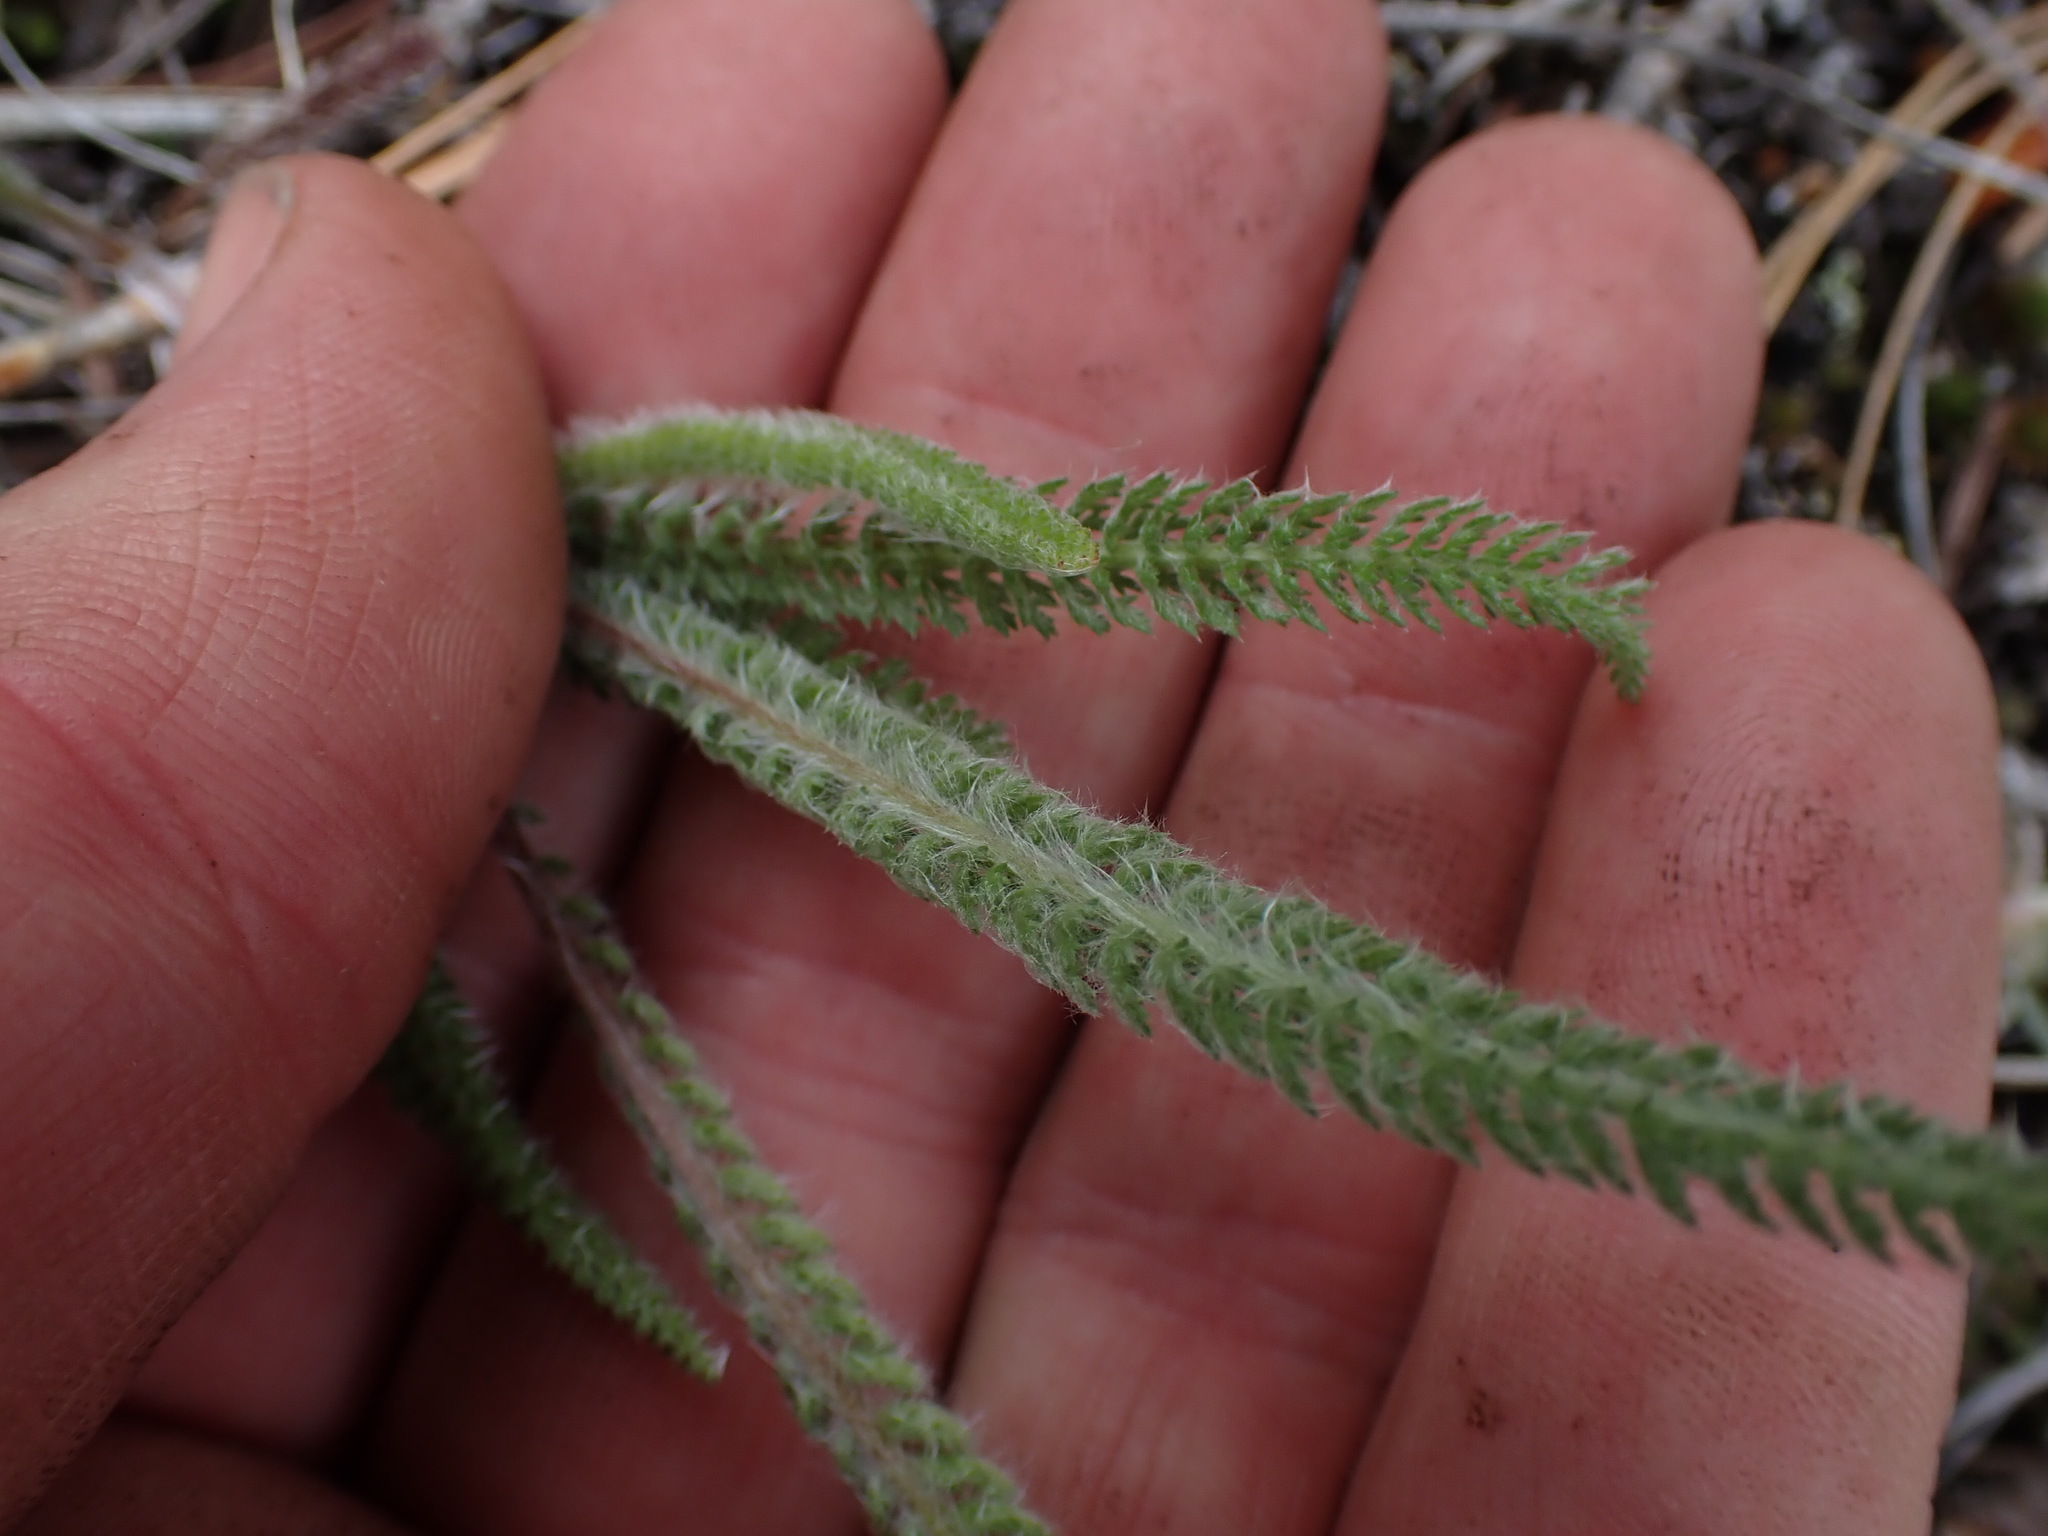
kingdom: Plantae
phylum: Tracheophyta
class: Magnoliopsida
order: Asterales
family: Asteraceae
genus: Achillea
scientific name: Achillea millefolium
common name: Yarrow
